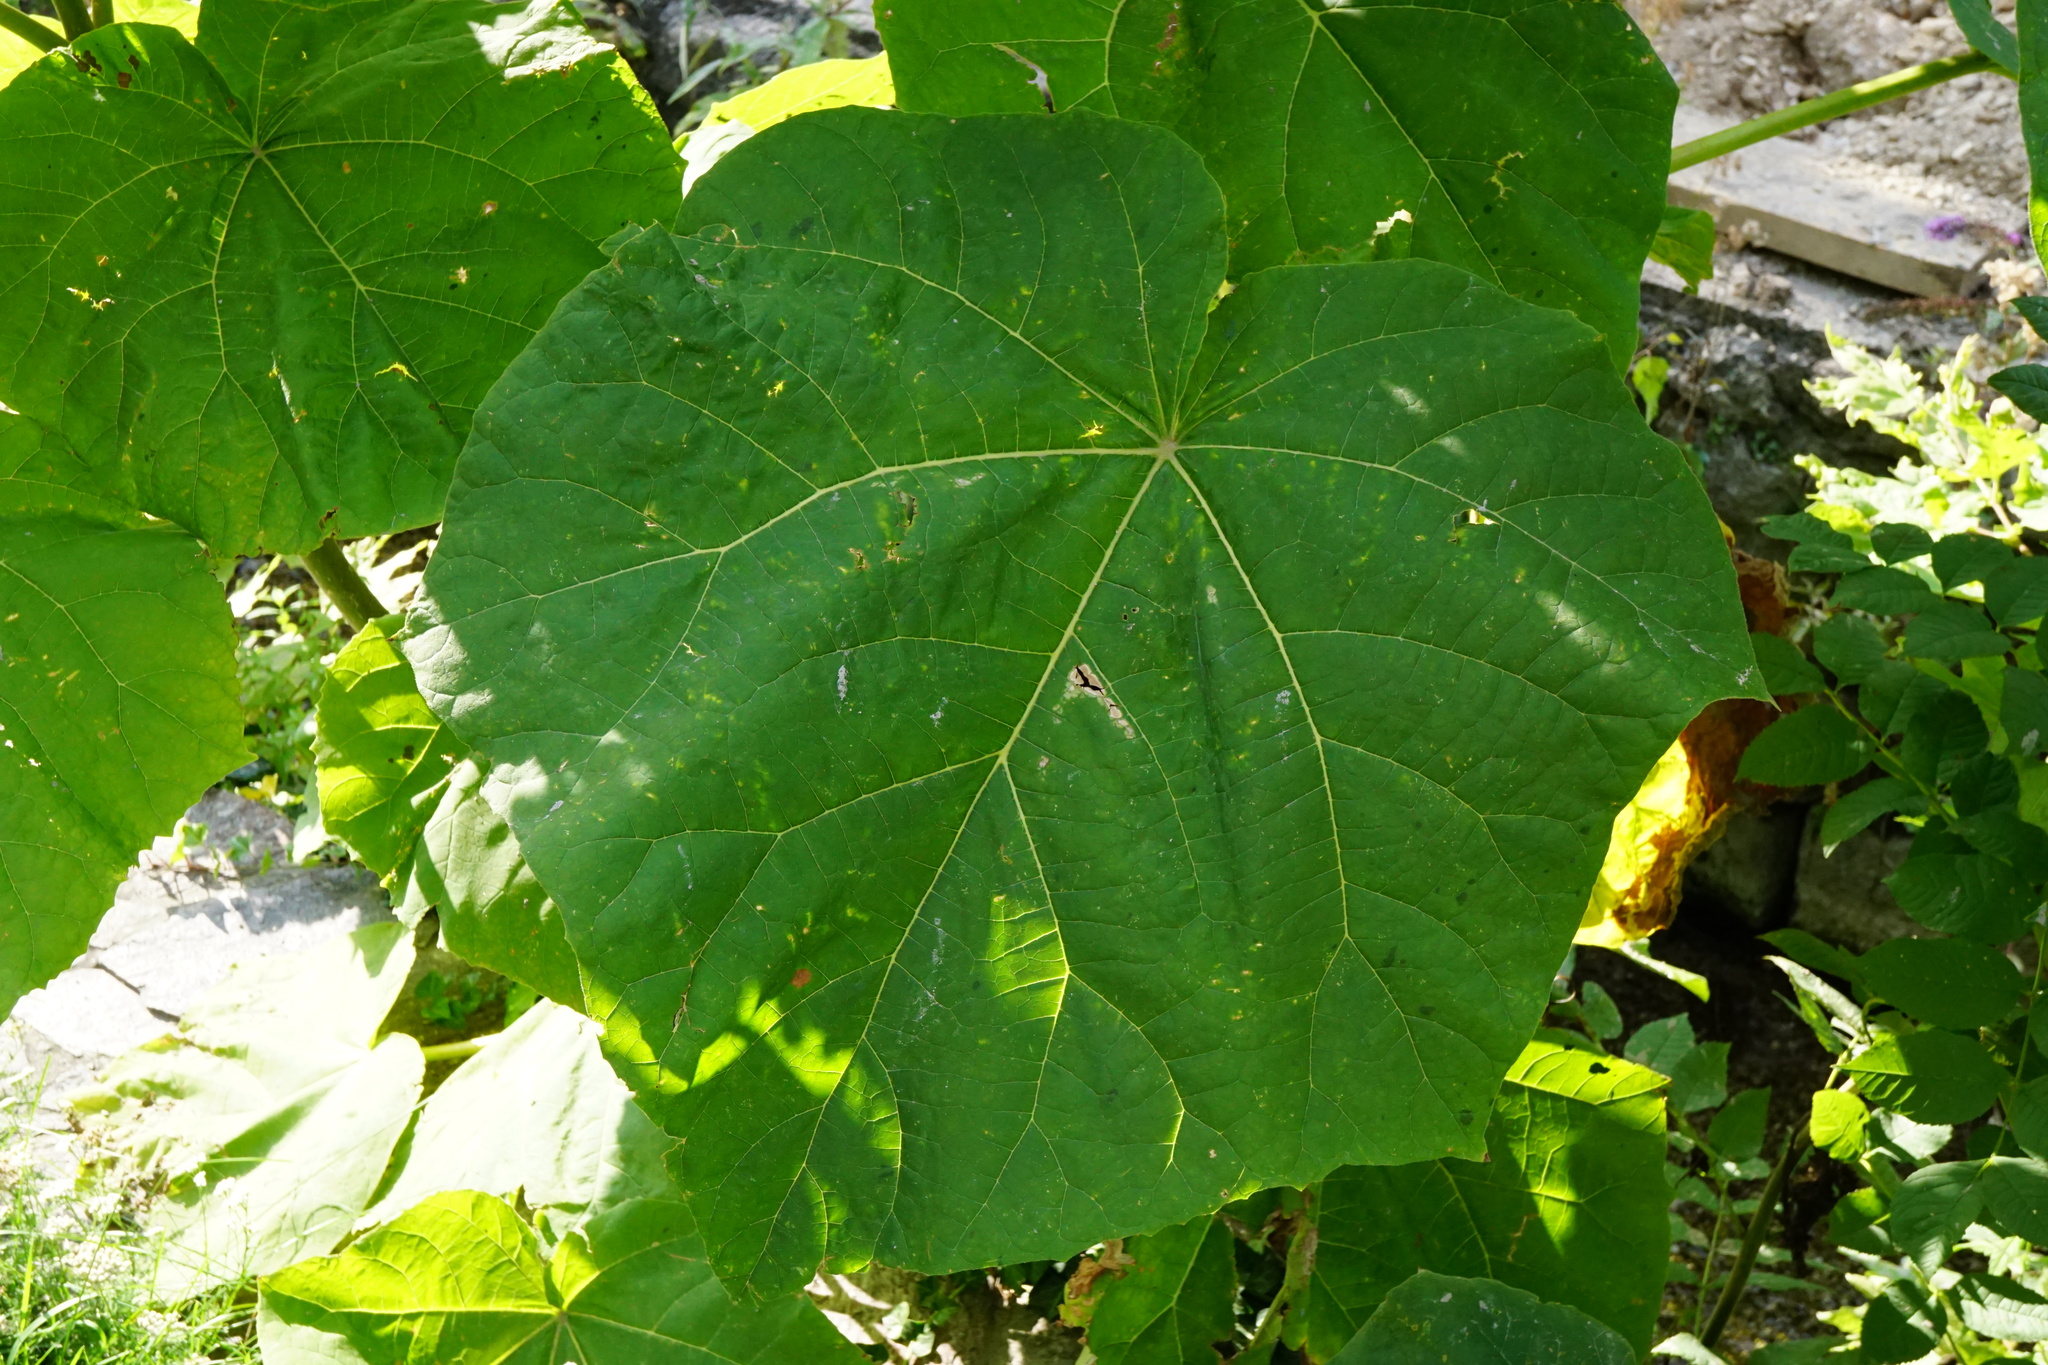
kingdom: Plantae
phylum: Tracheophyta
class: Magnoliopsida
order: Lamiales
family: Paulowniaceae
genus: Paulownia
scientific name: Paulownia tomentosa
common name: Foxglove-tree
